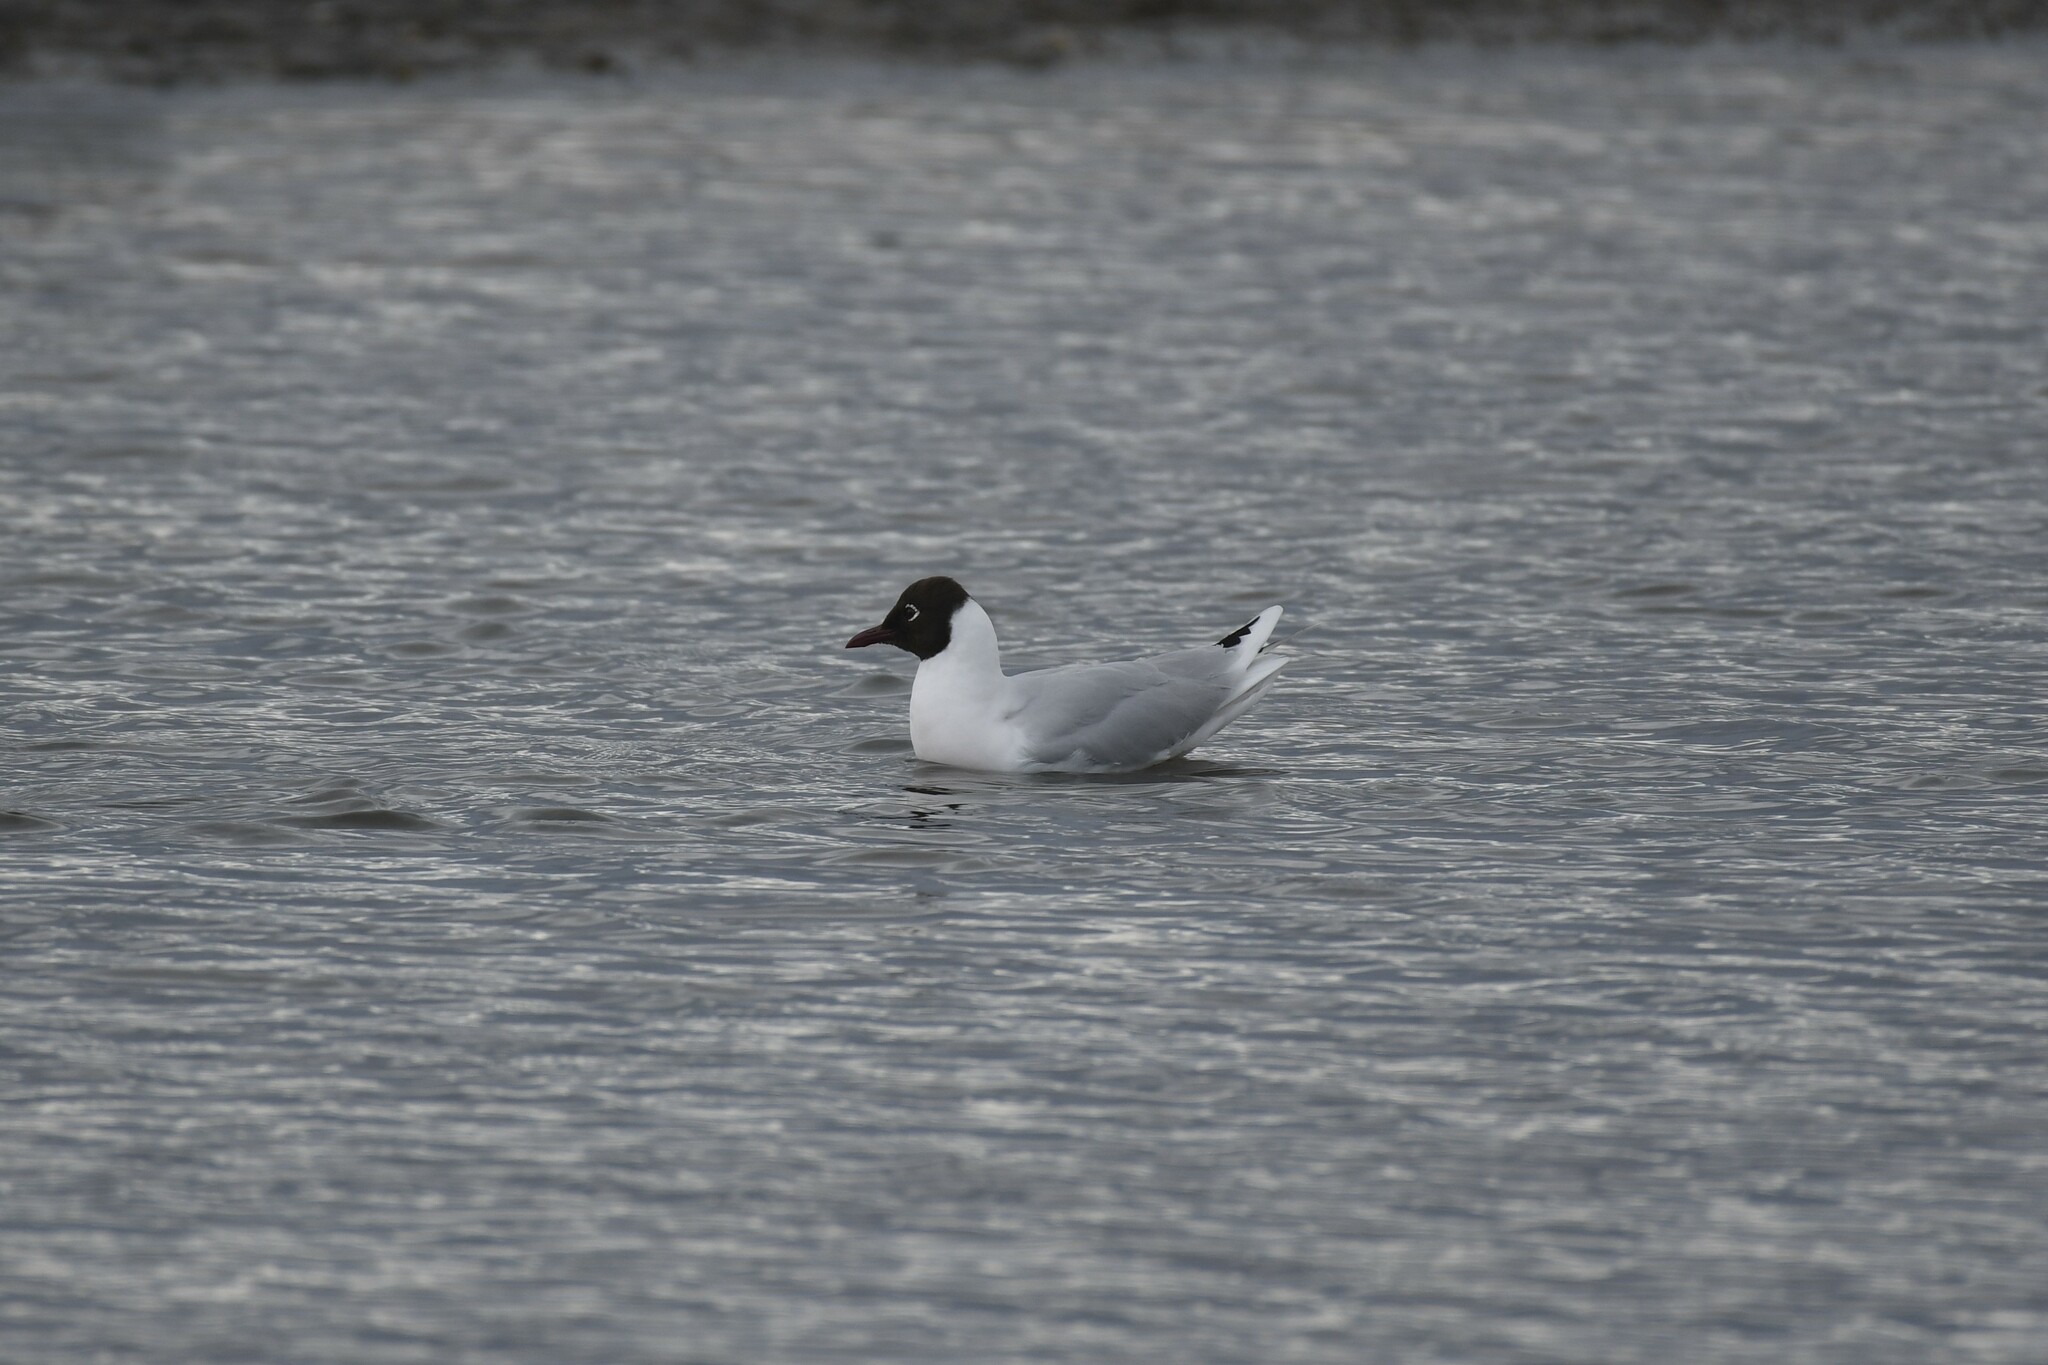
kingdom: Animalia
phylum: Chordata
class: Aves
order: Charadriiformes
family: Laridae
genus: Chroicocephalus
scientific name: Chroicocephalus maculipennis
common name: Brown-hooded gull
